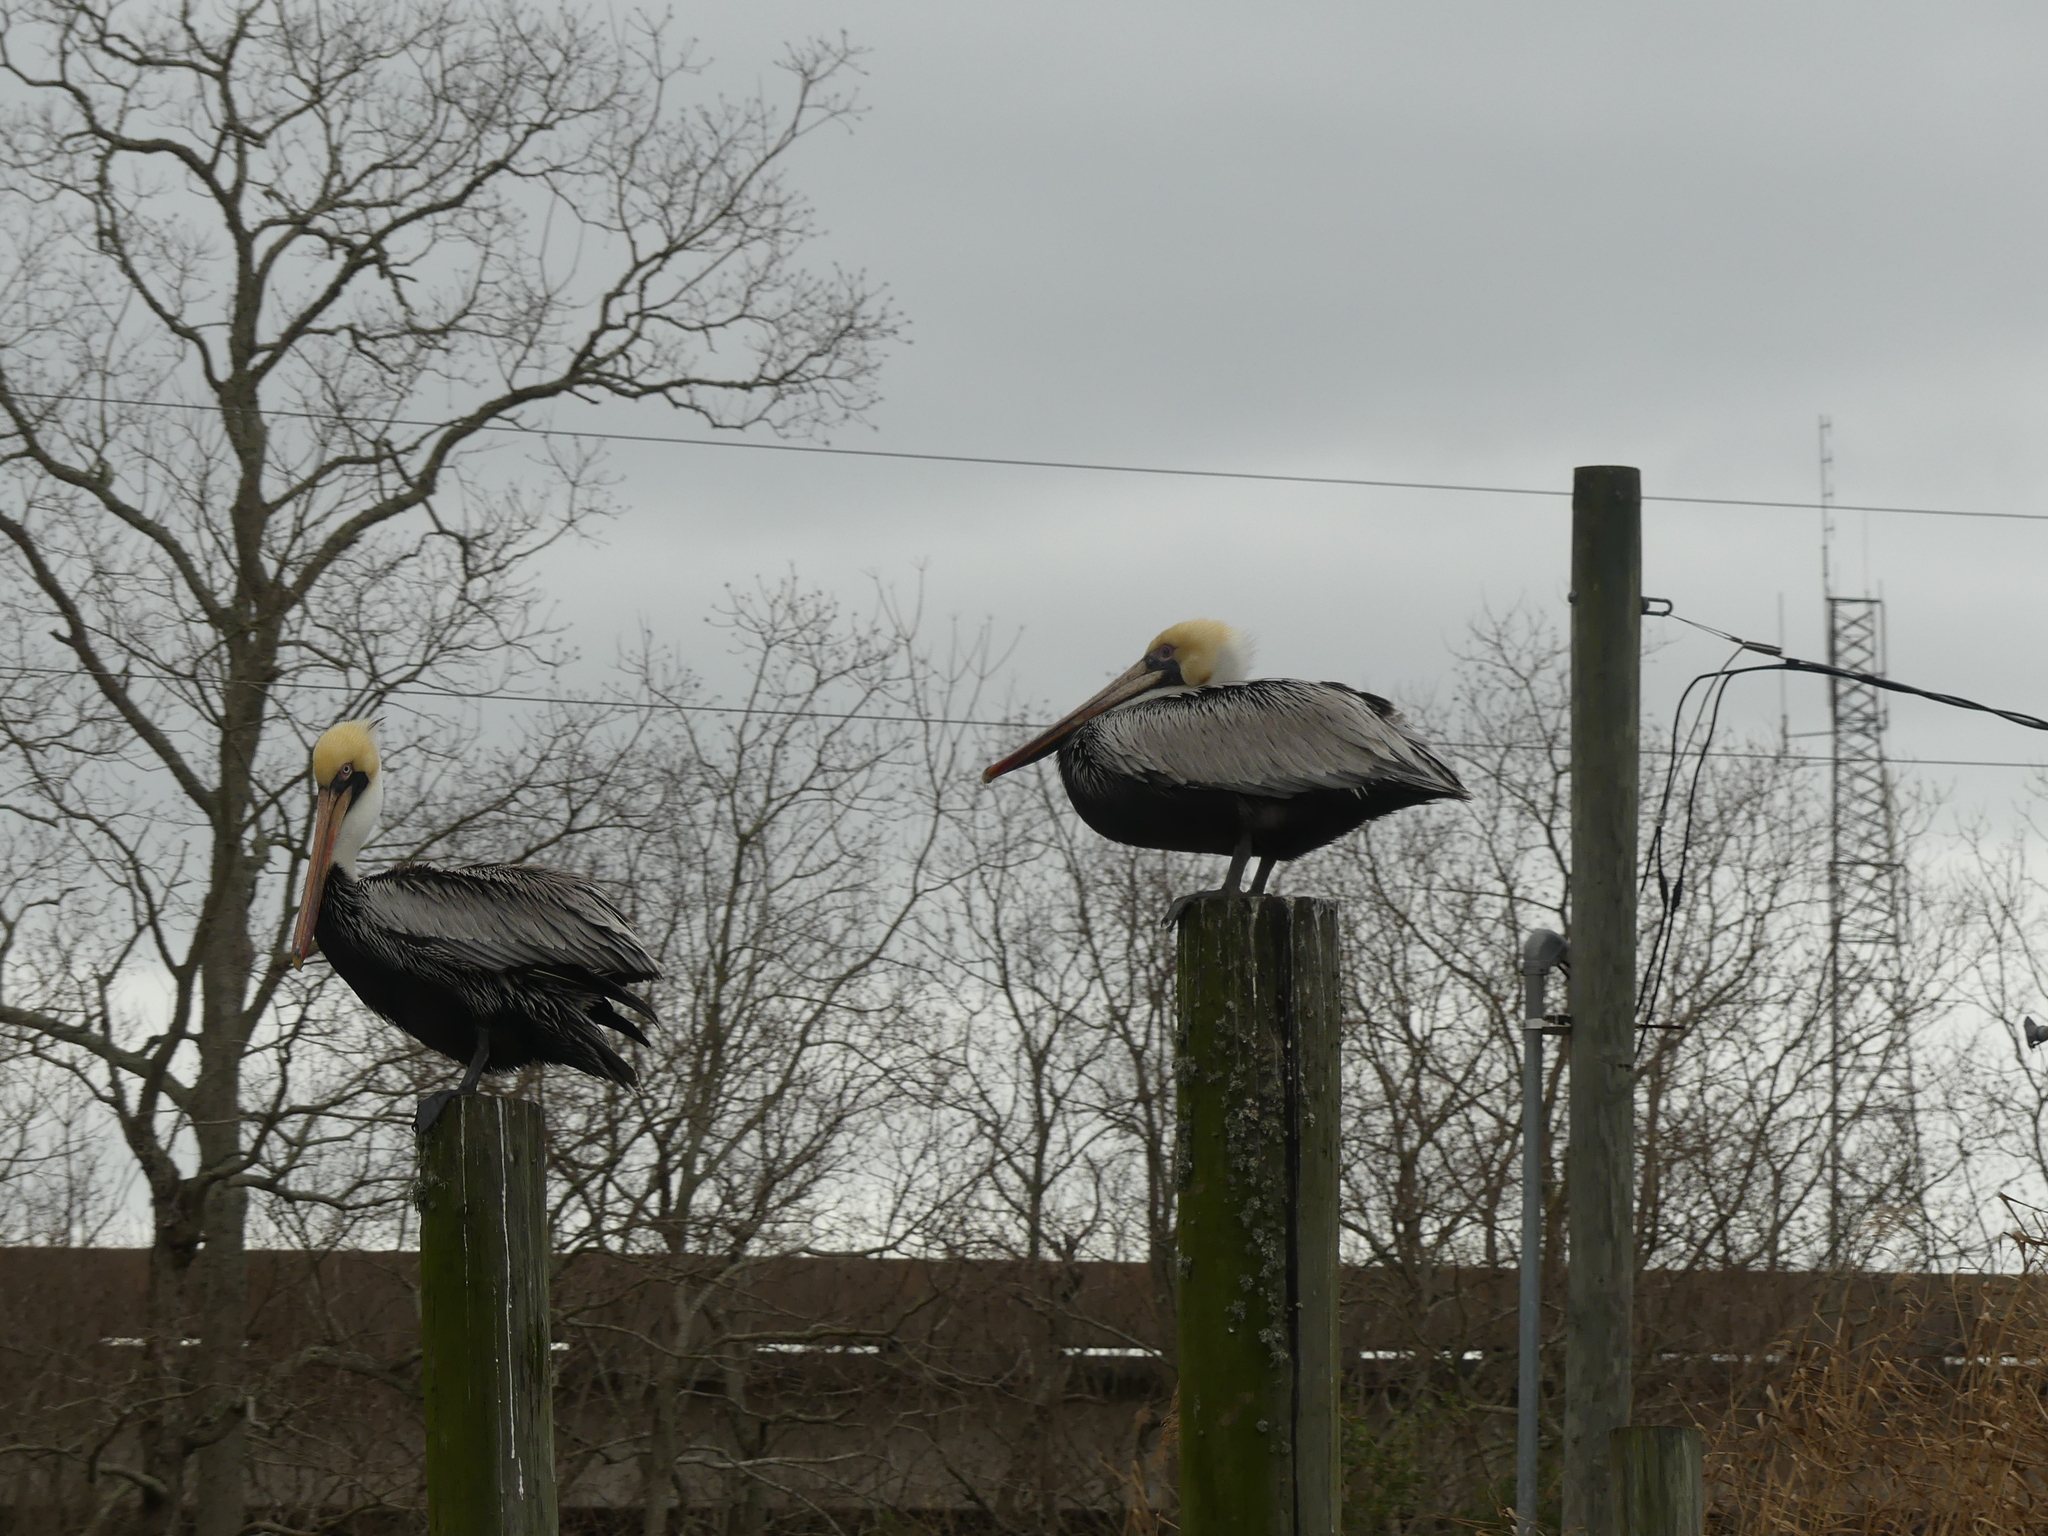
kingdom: Animalia
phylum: Chordata
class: Aves
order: Pelecaniformes
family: Pelecanidae
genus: Pelecanus
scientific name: Pelecanus occidentalis
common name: Brown pelican
